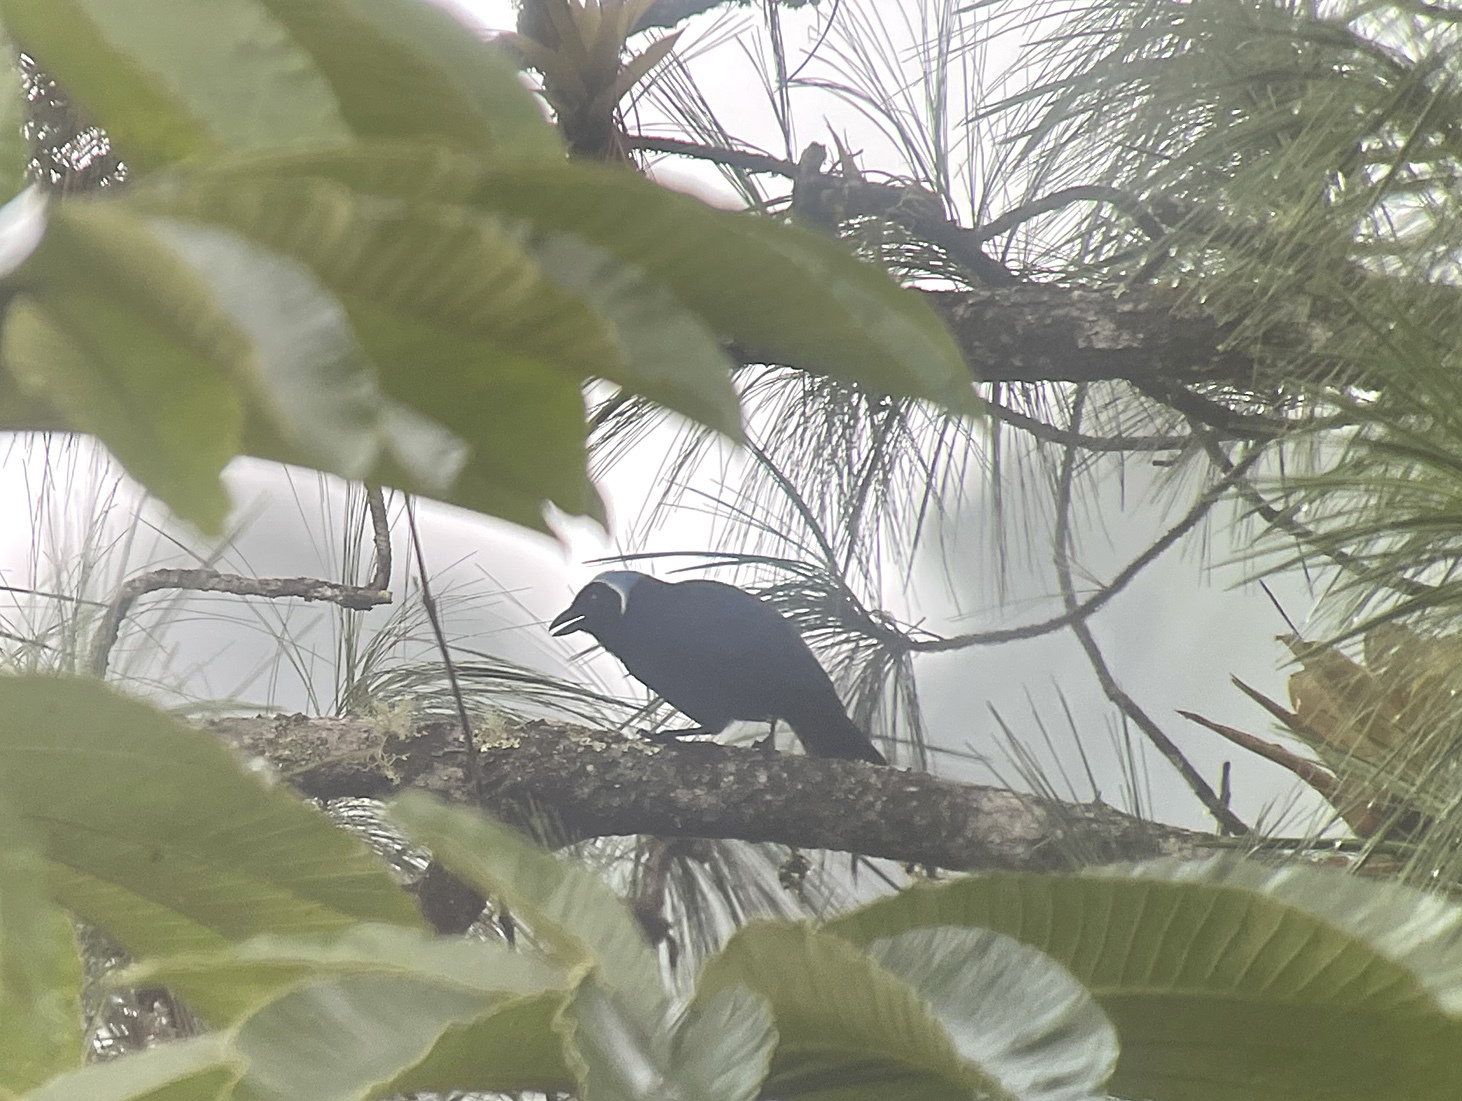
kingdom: Animalia
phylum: Chordata
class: Aves
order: Passeriformes
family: Corvidae
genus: Cyanolyca
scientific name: Cyanolyca cucullata
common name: Azure-hooded jay
